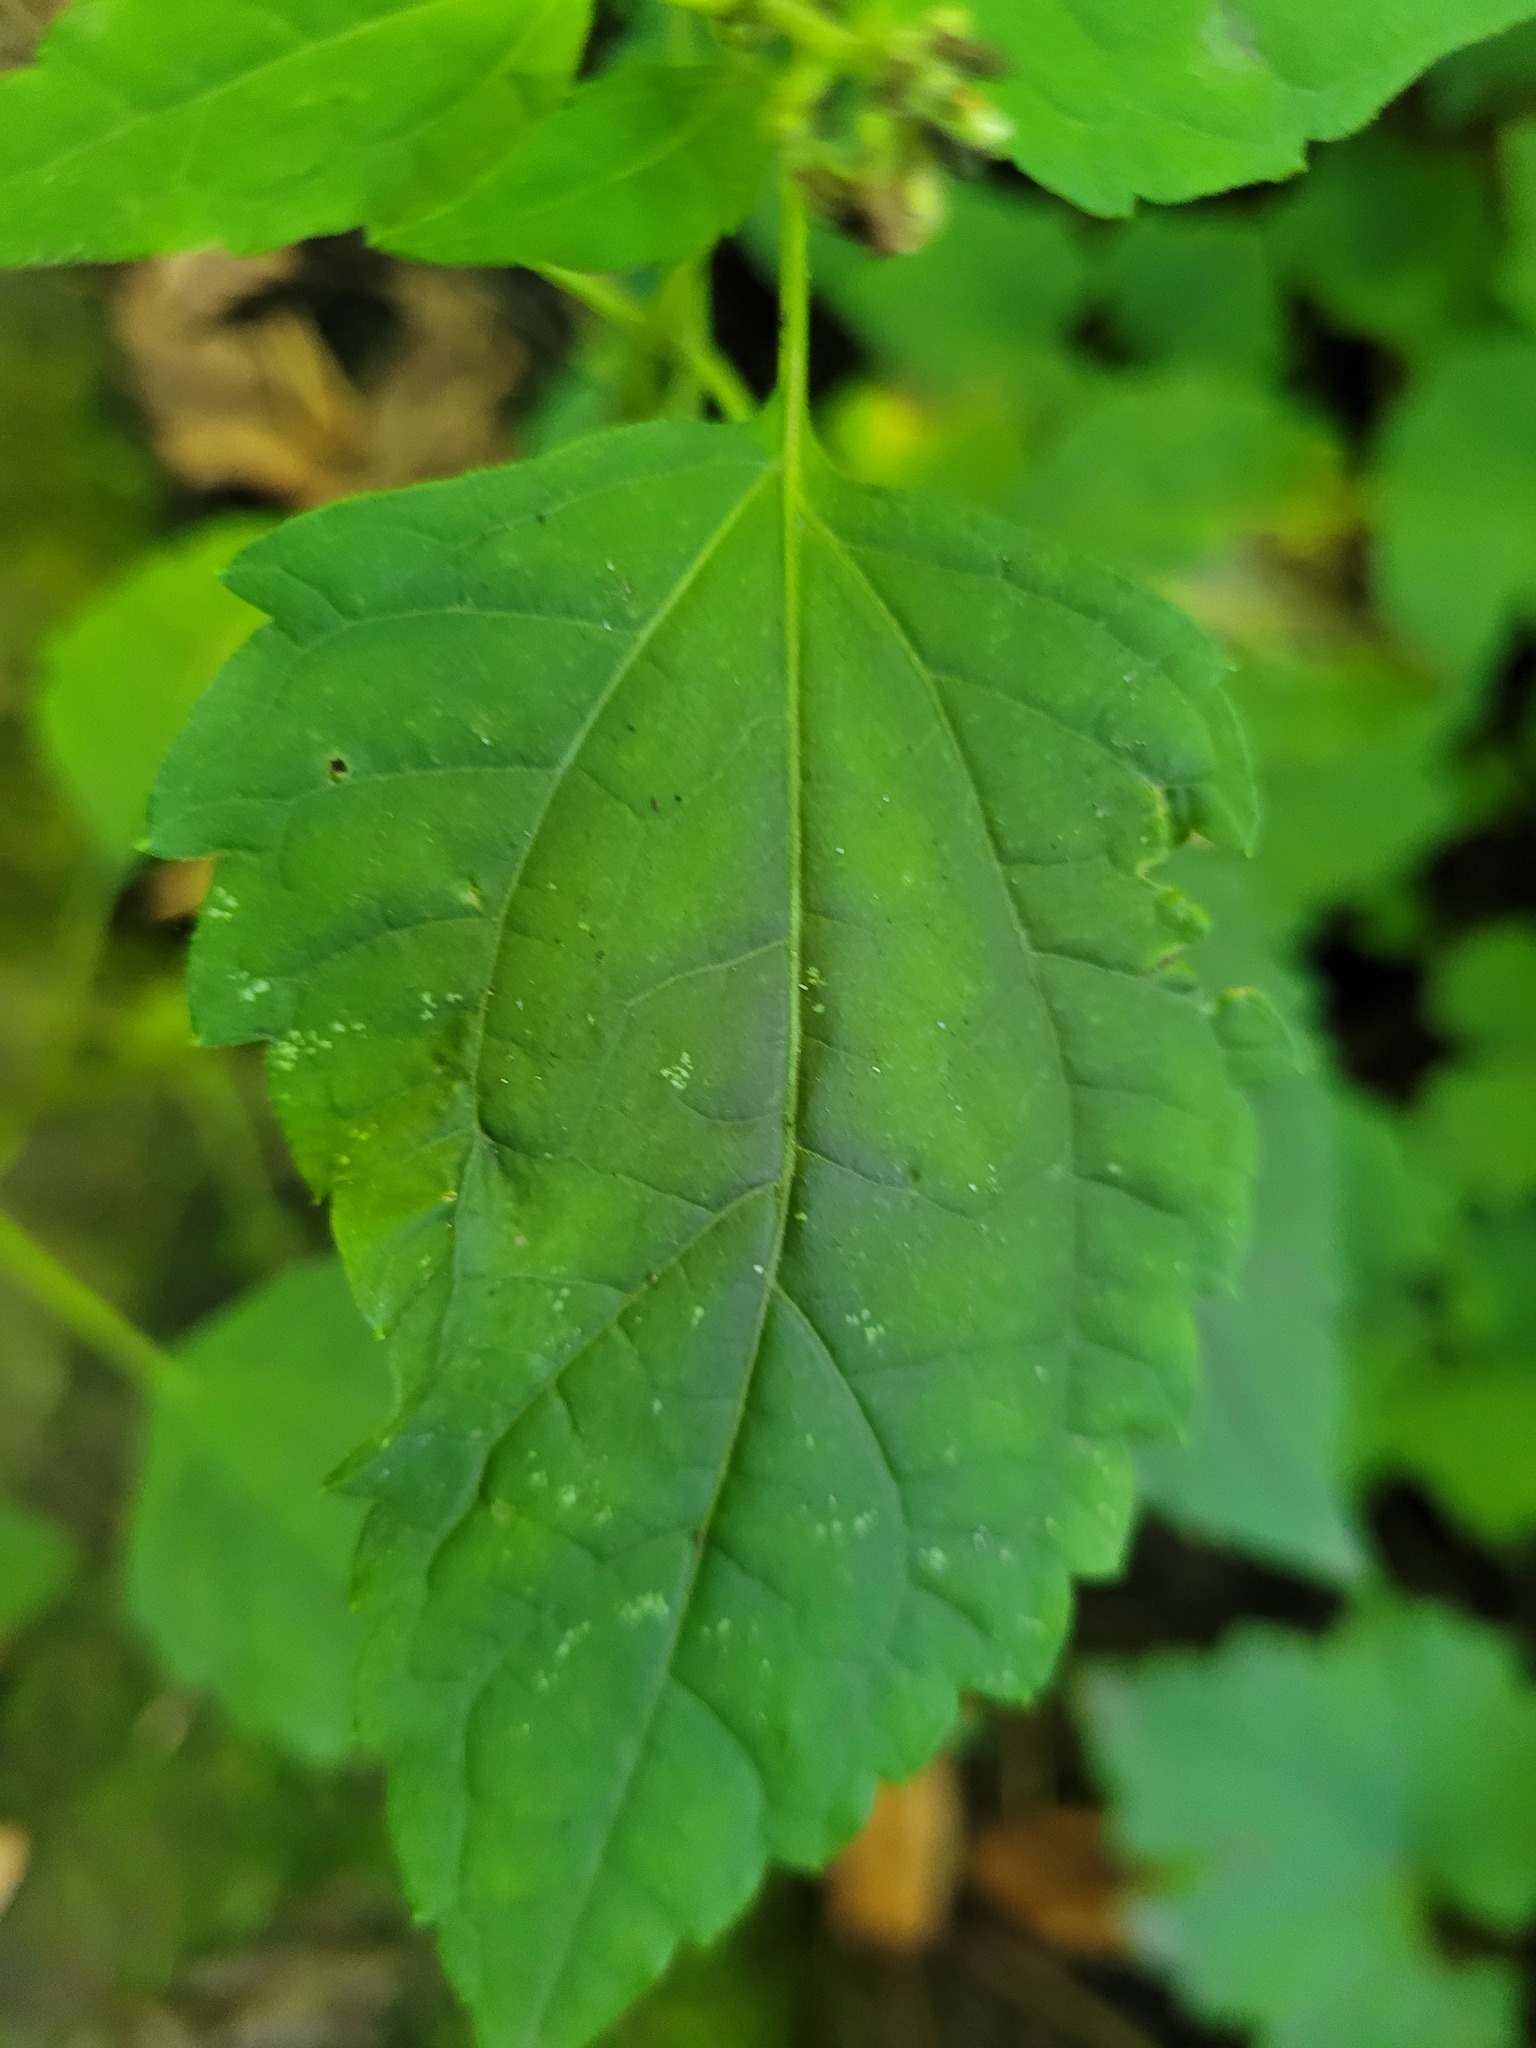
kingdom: Plantae
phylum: Tracheophyta
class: Magnoliopsida
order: Asterales
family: Asteraceae
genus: Ageratina
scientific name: Ageratina altissima
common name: White snakeroot
